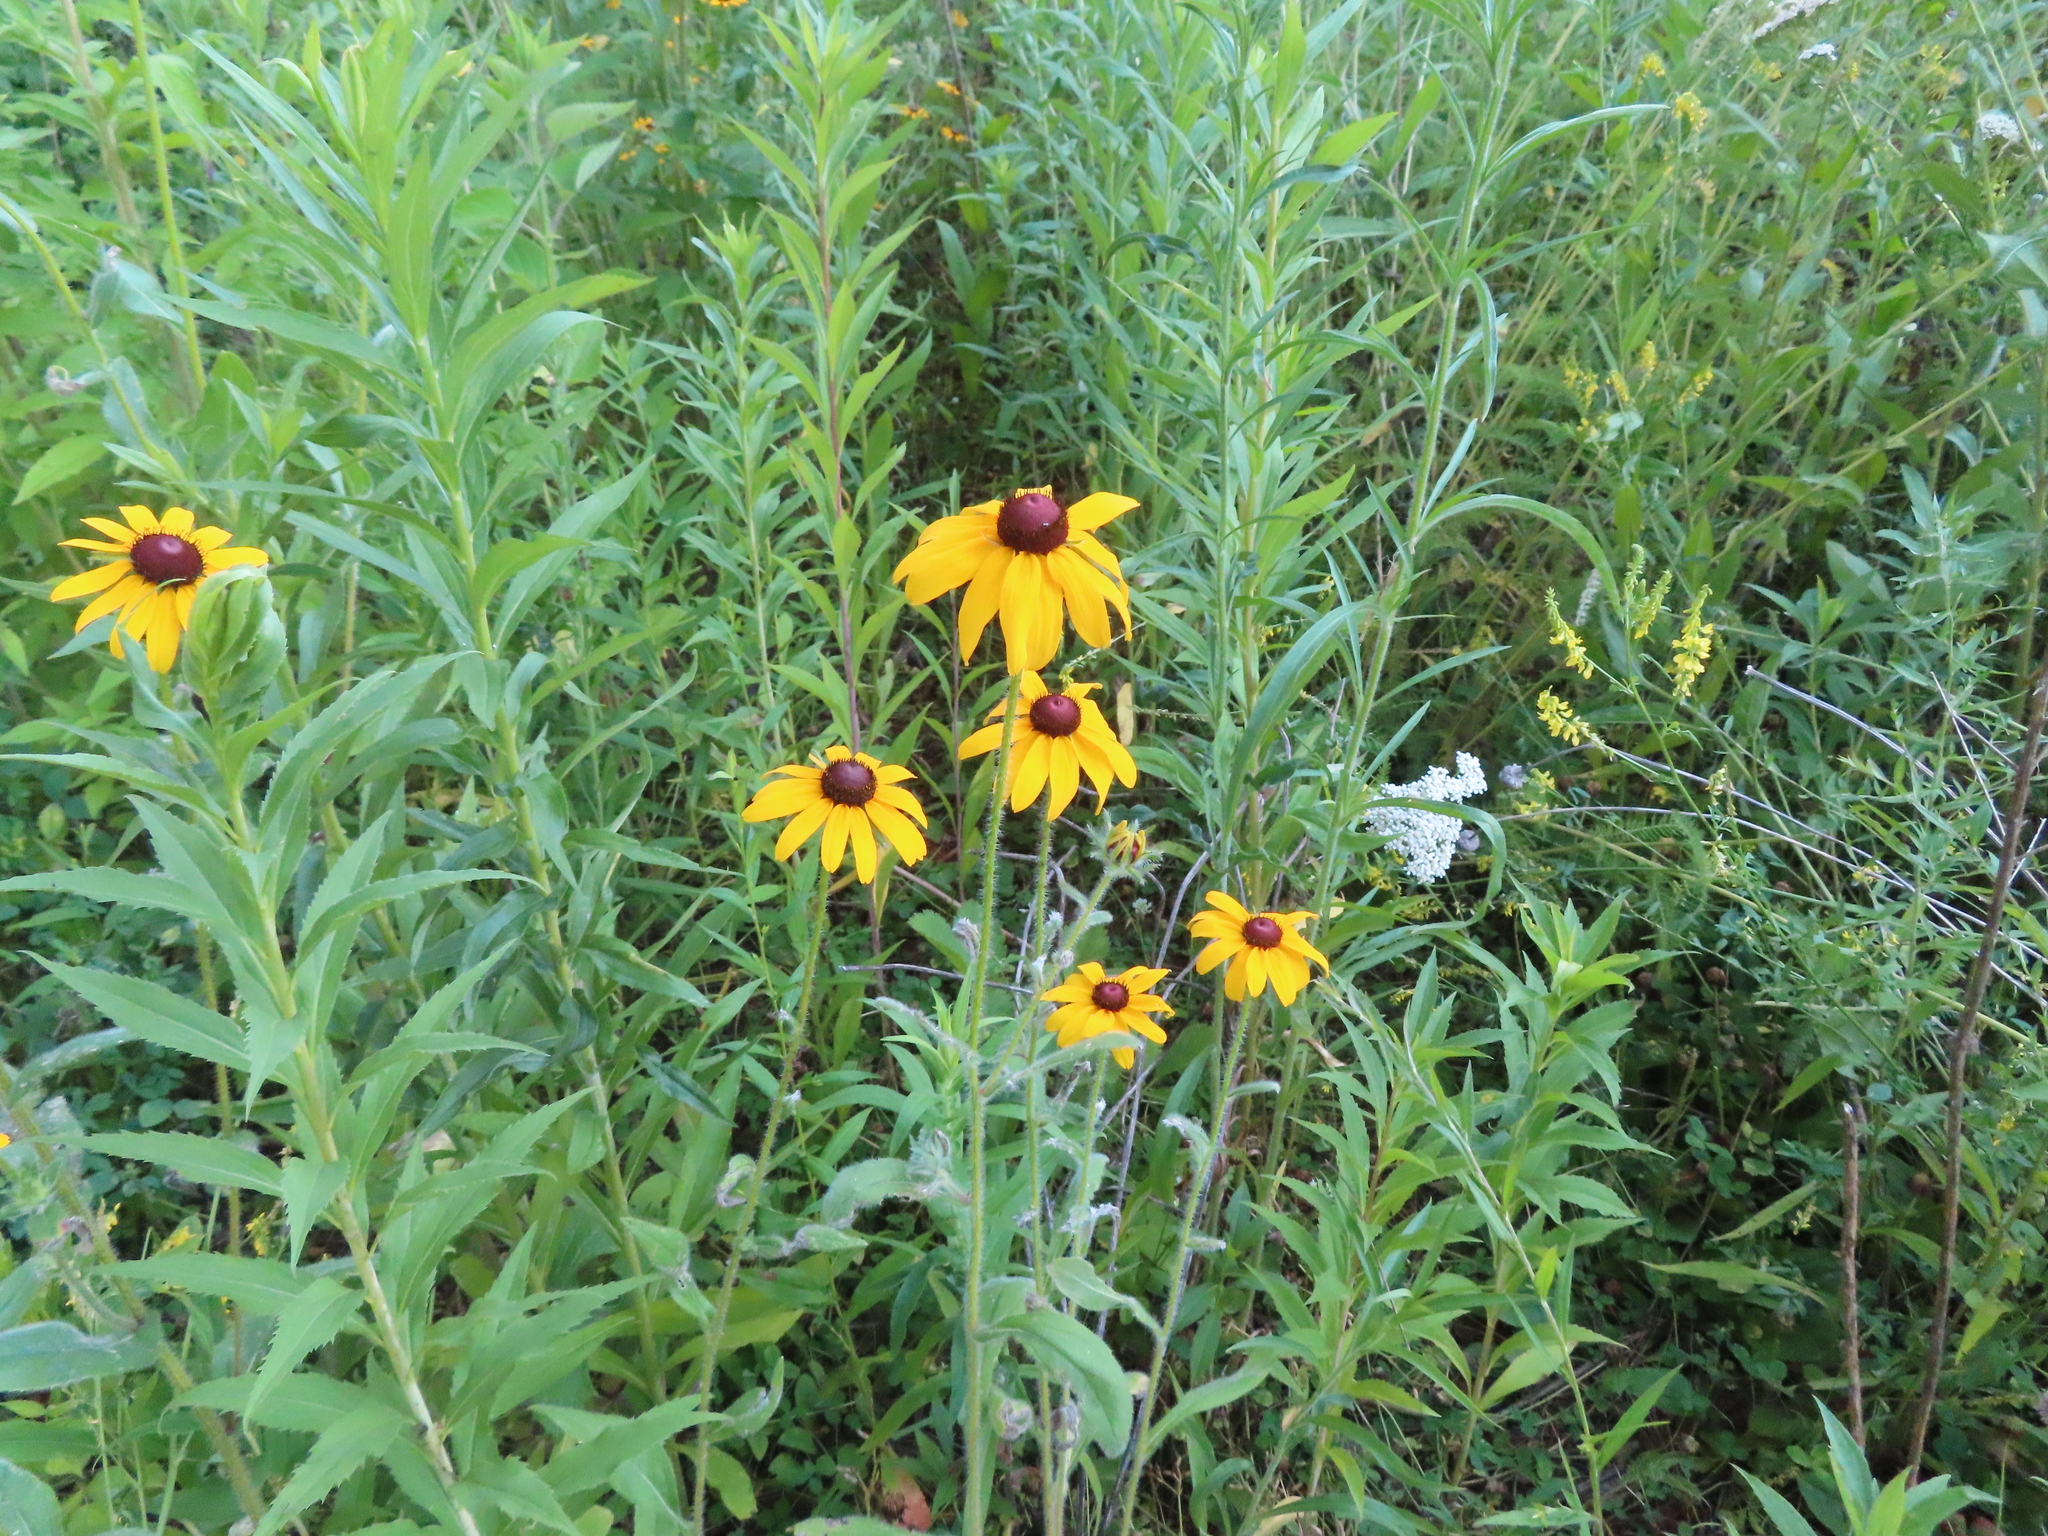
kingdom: Plantae
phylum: Tracheophyta
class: Magnoliopsida
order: Asterales
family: Asteraceae
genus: Rudbeckia
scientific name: Rudbeckia hirta
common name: Black-eyed-susan
